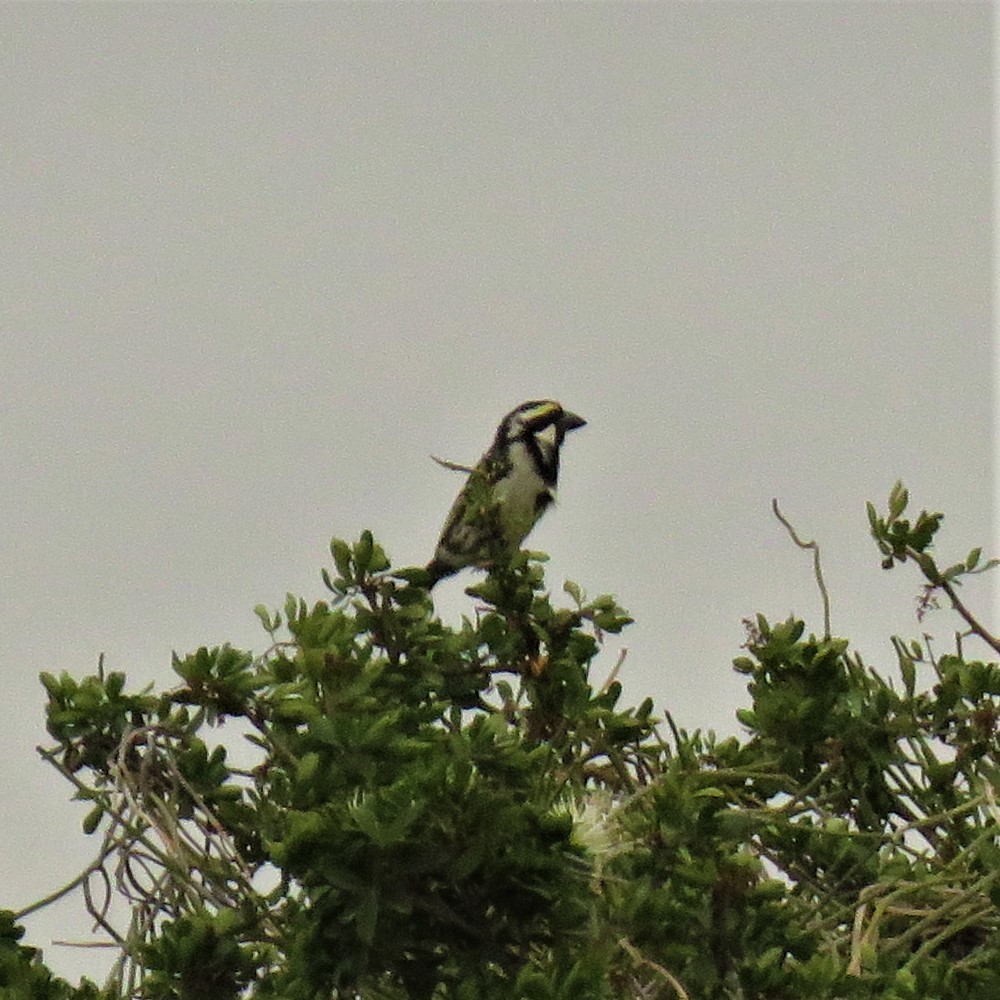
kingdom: Animalia
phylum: Chordata
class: Aves
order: Piciformes
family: Lybiidae
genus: Tricholaema
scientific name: Tricholaema leucomelas
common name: Acacia pied barbet
